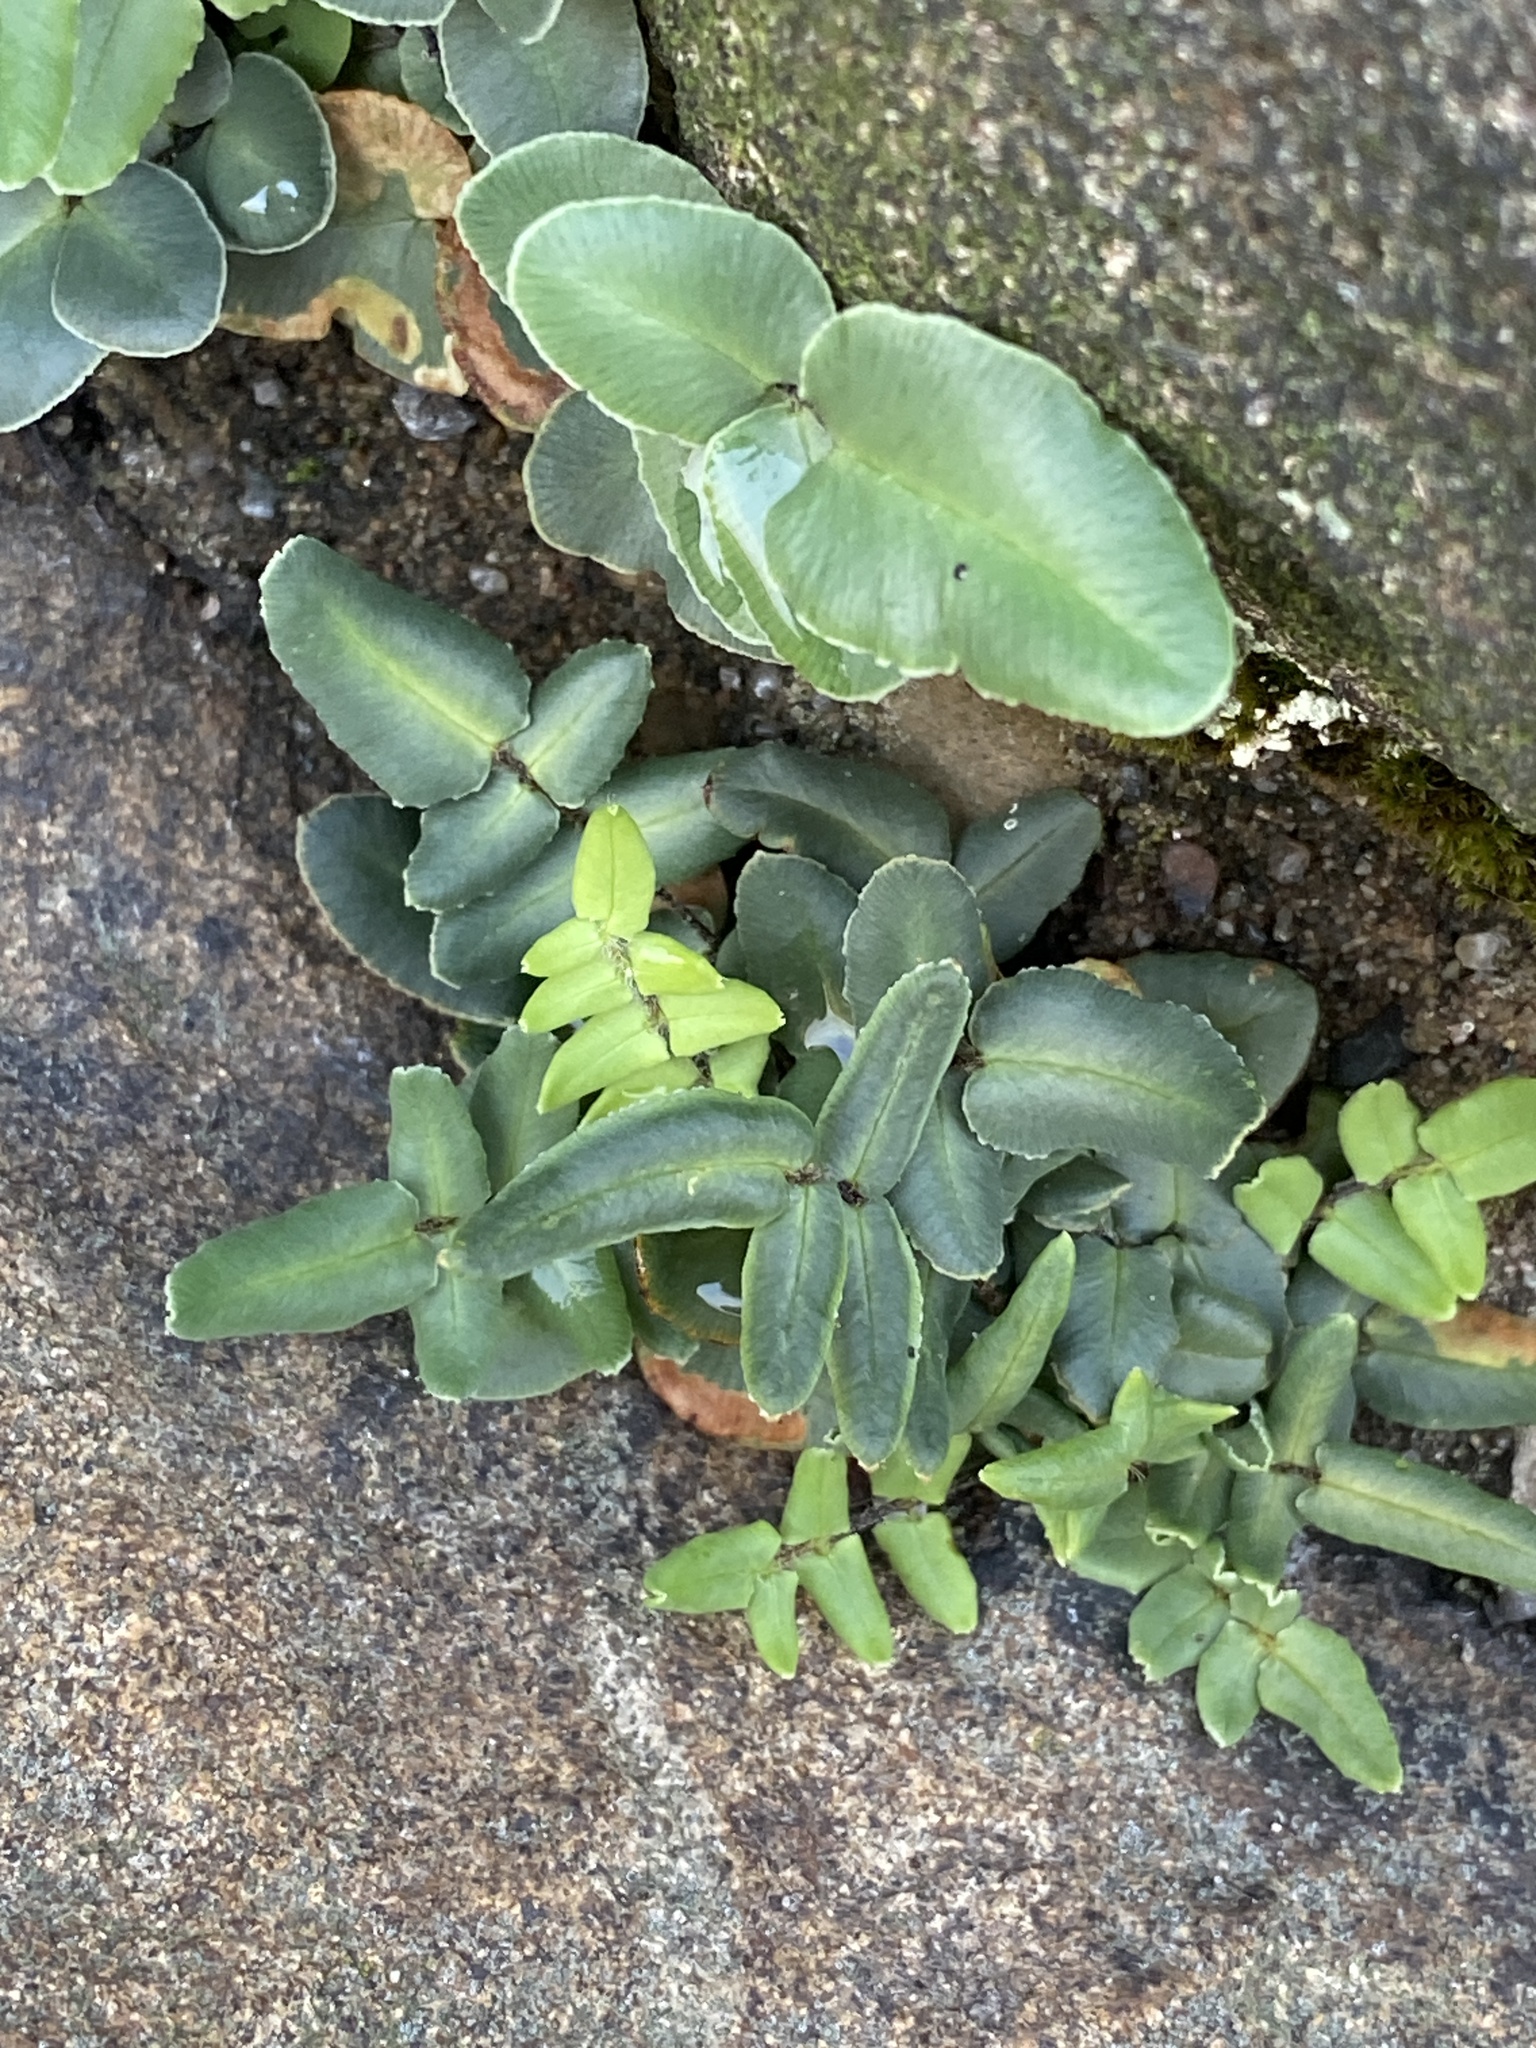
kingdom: Plantae
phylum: Tracheophyta
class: Polypodiopsida
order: Polypodiales
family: Pteridaceae
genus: Pellaea
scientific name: Pellaea atropurpurea
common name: Hairy cliffbrake
